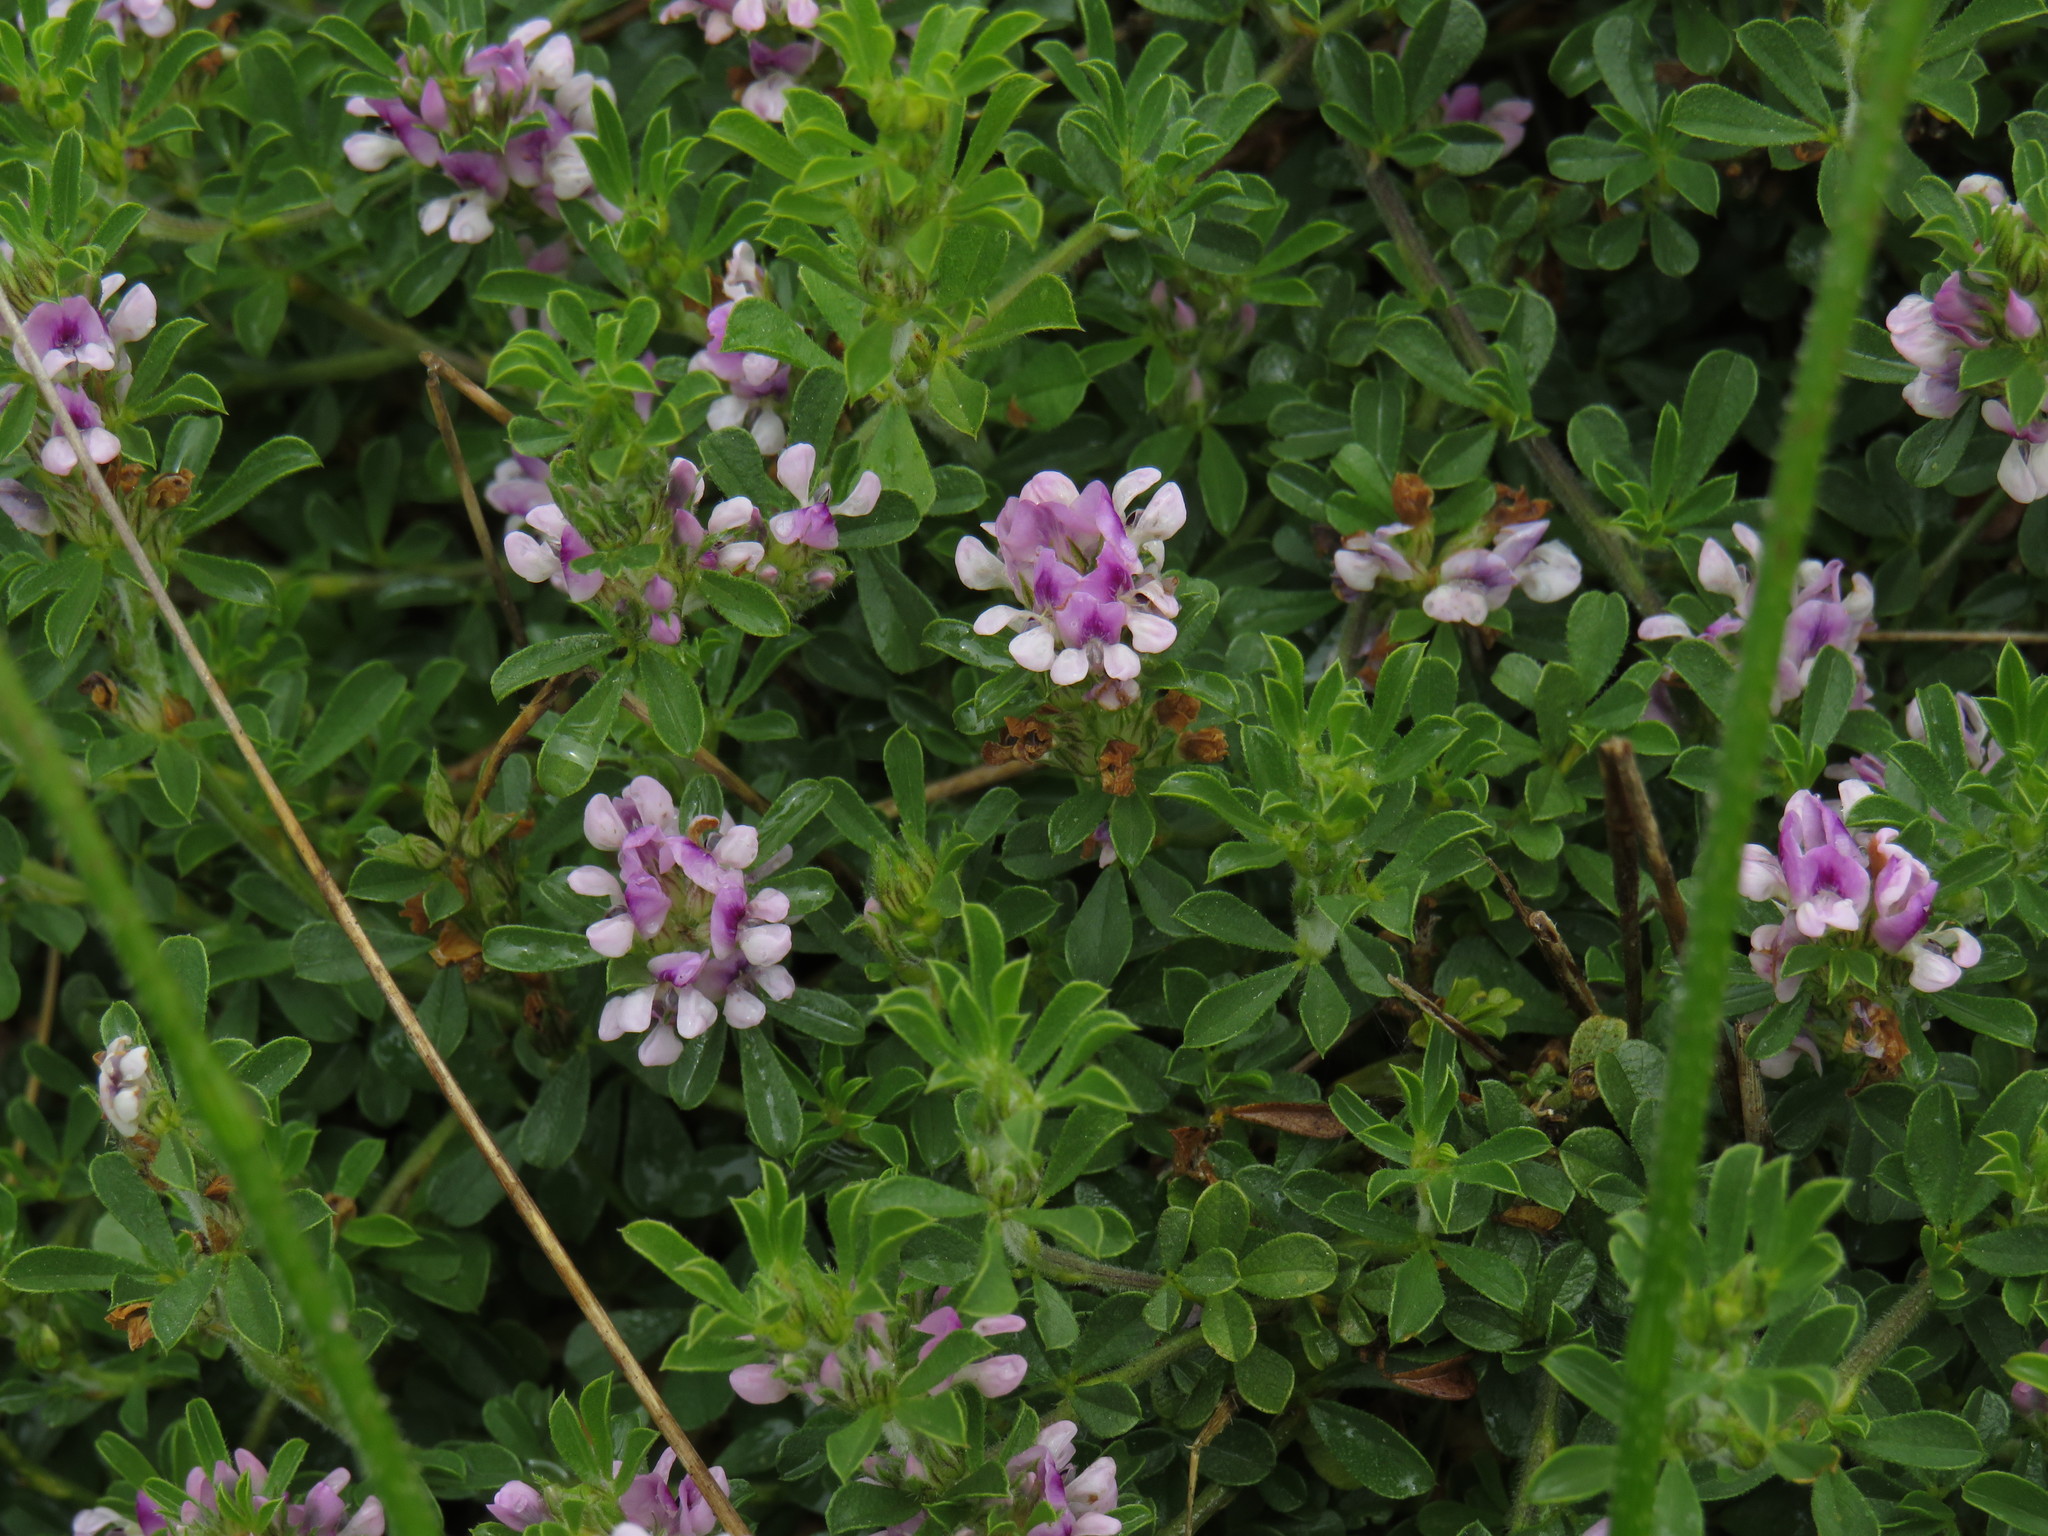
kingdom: Plantae
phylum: Tracheophyta
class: Magnoliopsida
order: Fabales
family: Fabaceae
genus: Psoralea
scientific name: Psoralea
